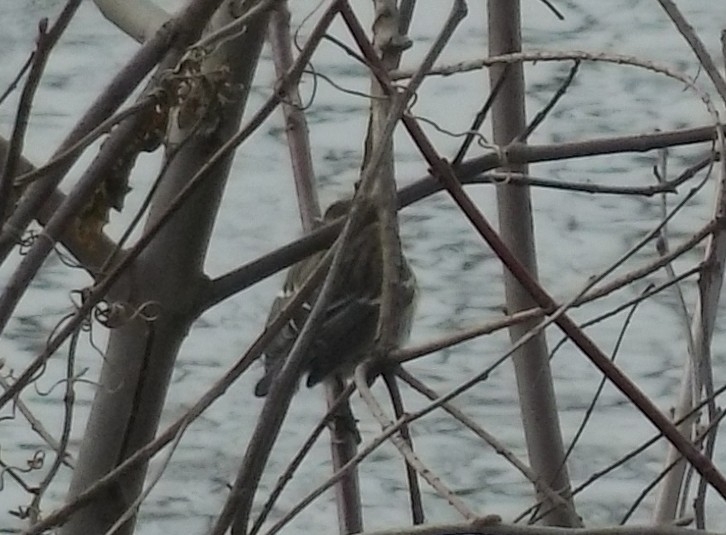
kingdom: Animalia
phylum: Chordata
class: Aves
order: Passeriformes
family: Parulidae
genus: Setophaga
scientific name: Setophaga coronata
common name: Myrtle warbler
